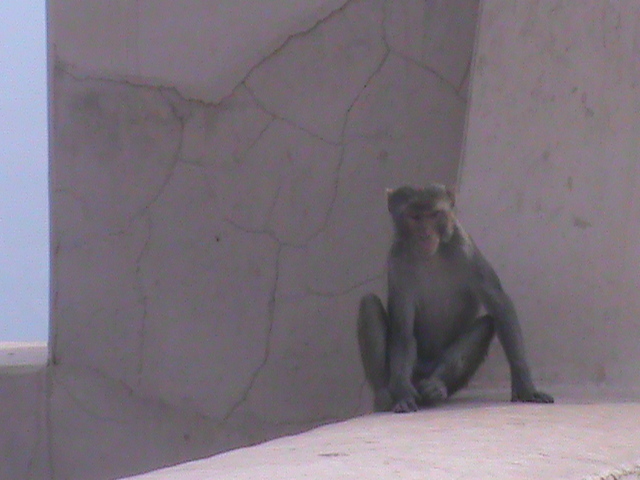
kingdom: Animalia
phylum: Chordata
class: Mammalia
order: Primates
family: Cercopithecidae
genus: Macaca
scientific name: Macaca mulatta
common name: Rhesus monkey
